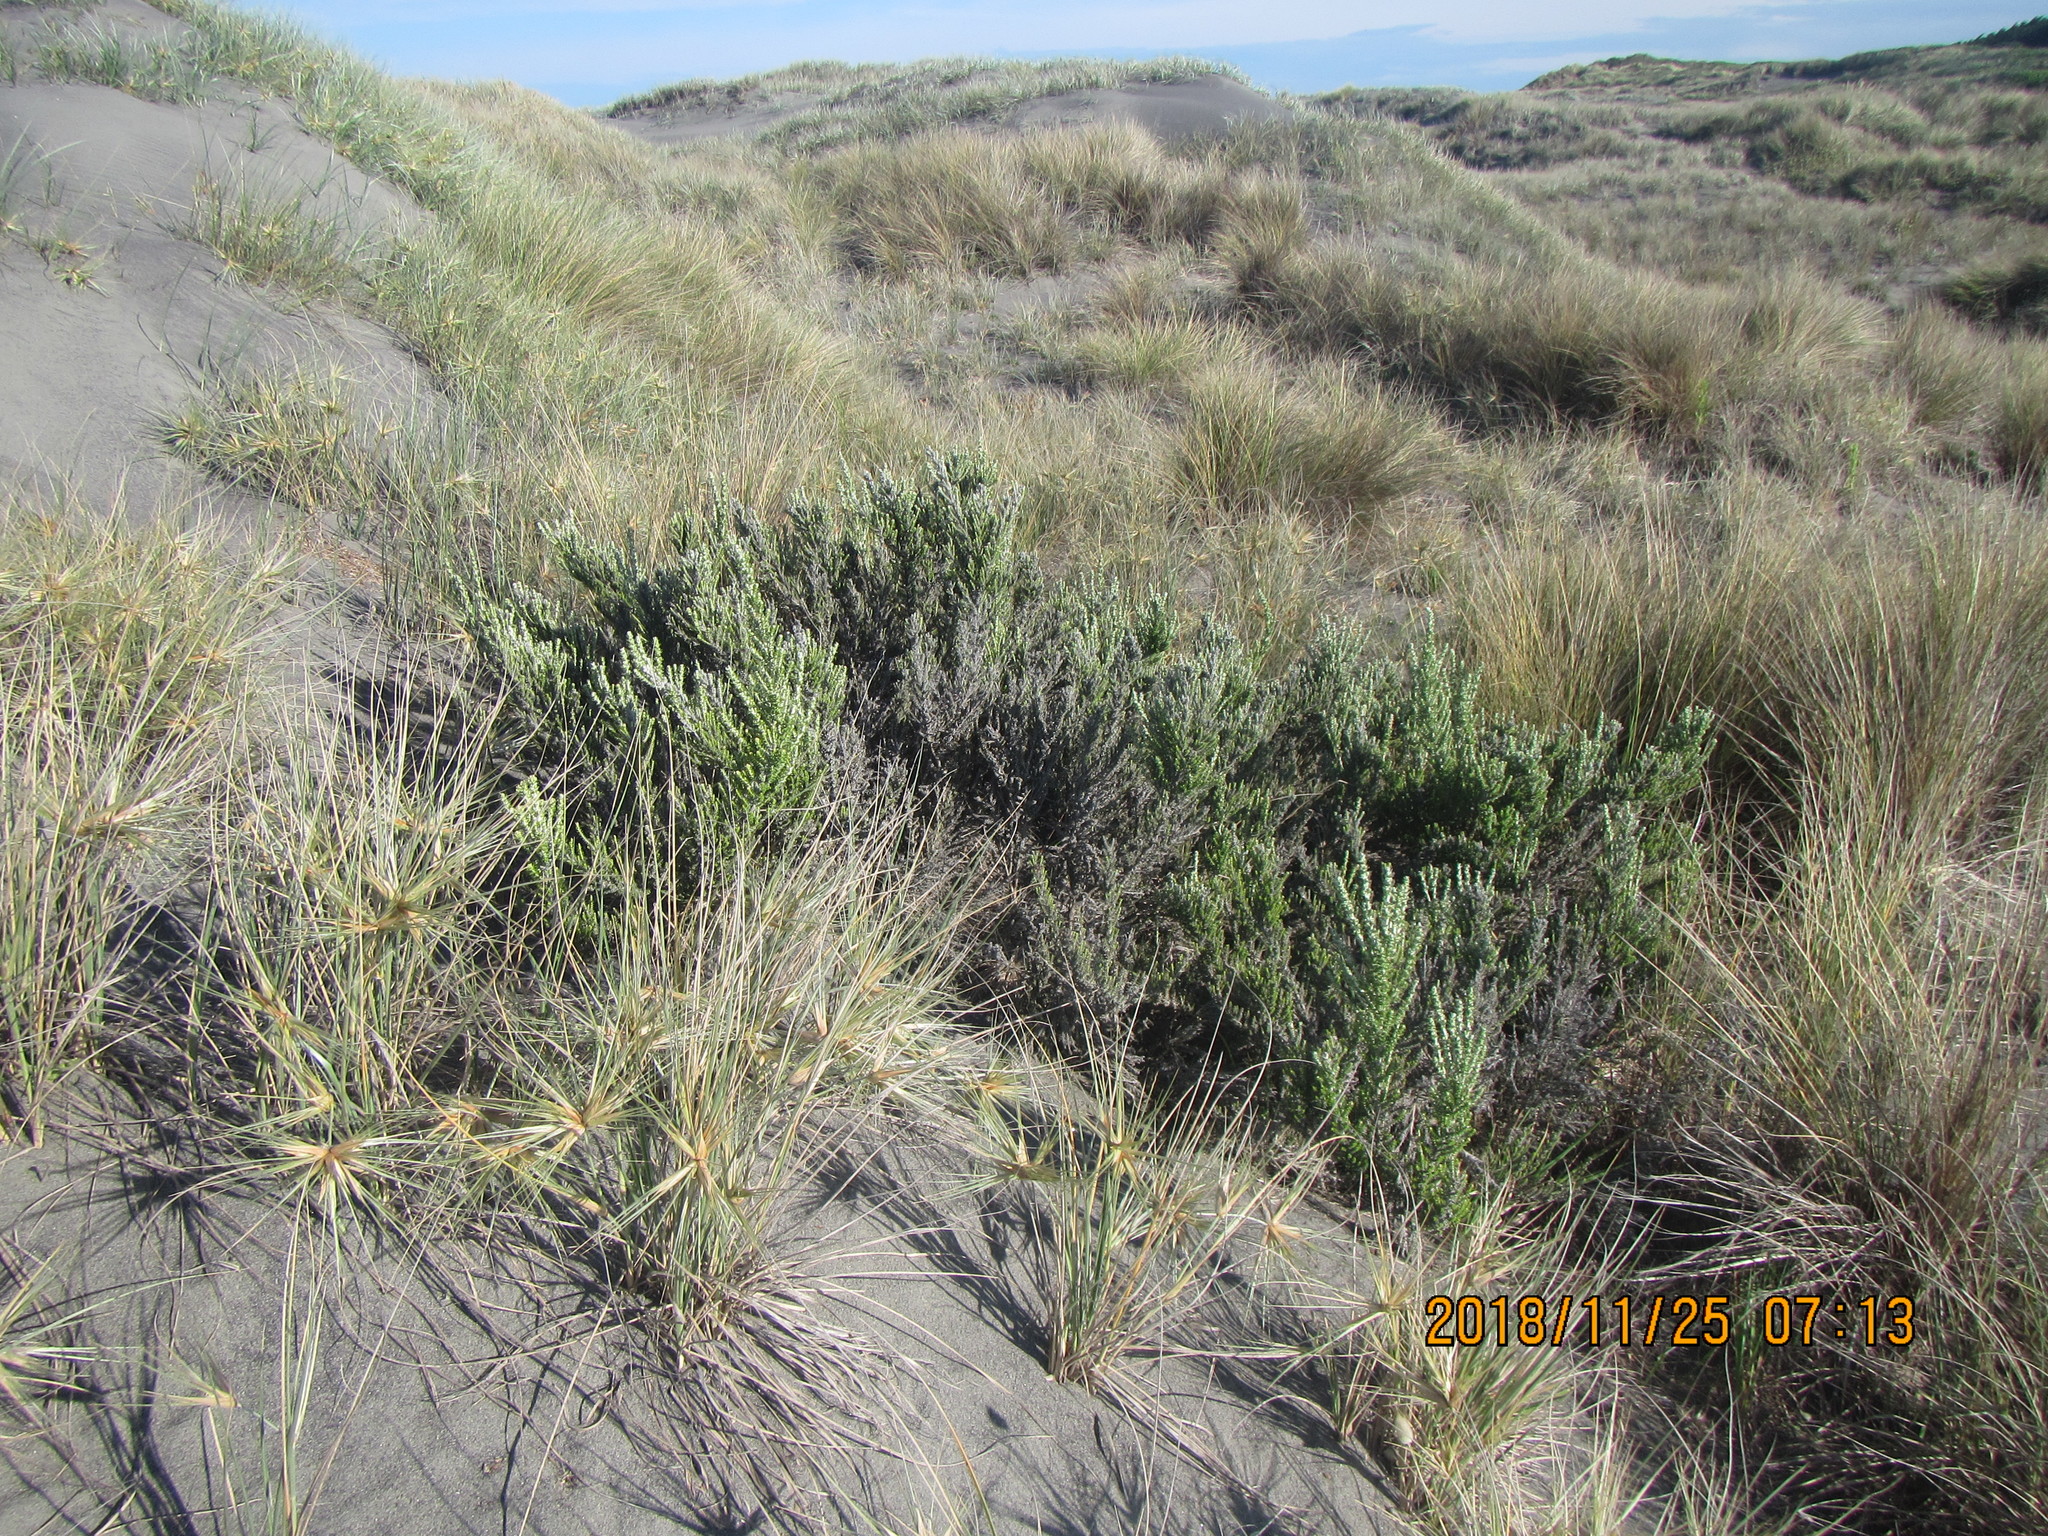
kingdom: Plantae
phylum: Tracheophyta
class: Magnoliopsida
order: Asterales
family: Asteraceae
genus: Ozothamnus
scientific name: Ozothamnus leptophyllus
